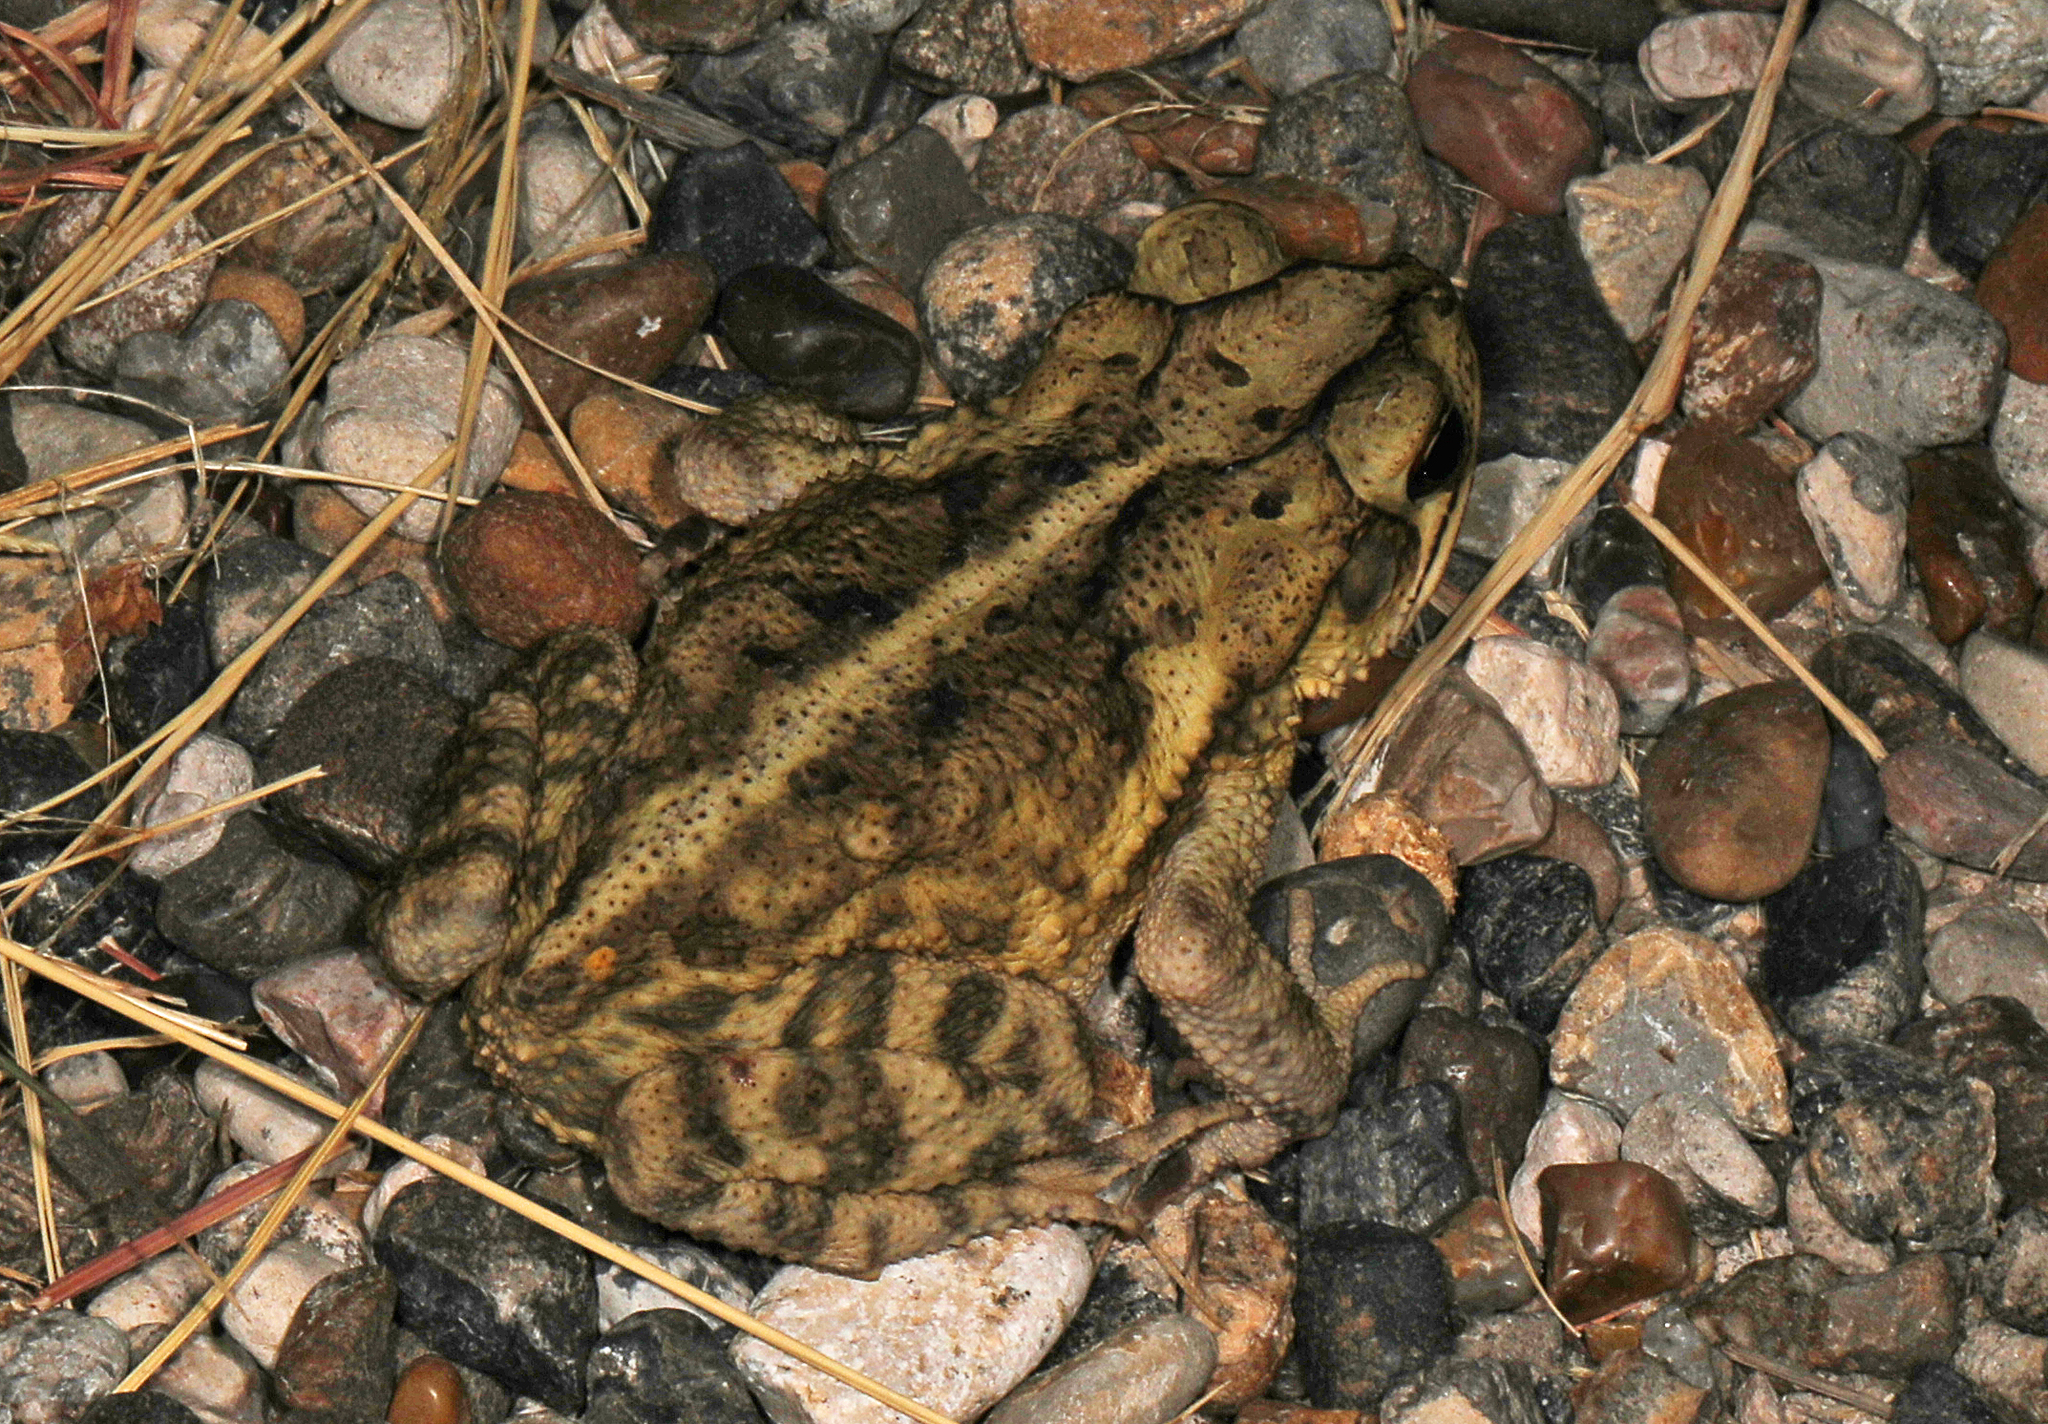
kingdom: Animalia
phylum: Chordata
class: Amphibia
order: Anura
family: Bufonidae
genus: Incilius
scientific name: Incilius nebulifer
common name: Gulf coast toad
